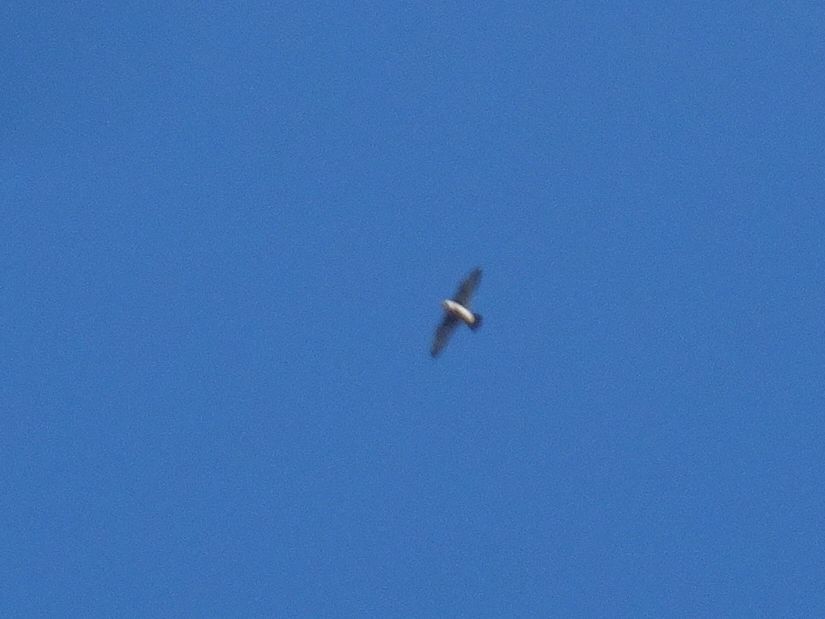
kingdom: Animalia
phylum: Chordata
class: Aves
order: Falconiformes
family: Falconidae
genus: Falco
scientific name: Falco peregrinus
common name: Peregrine falcon
